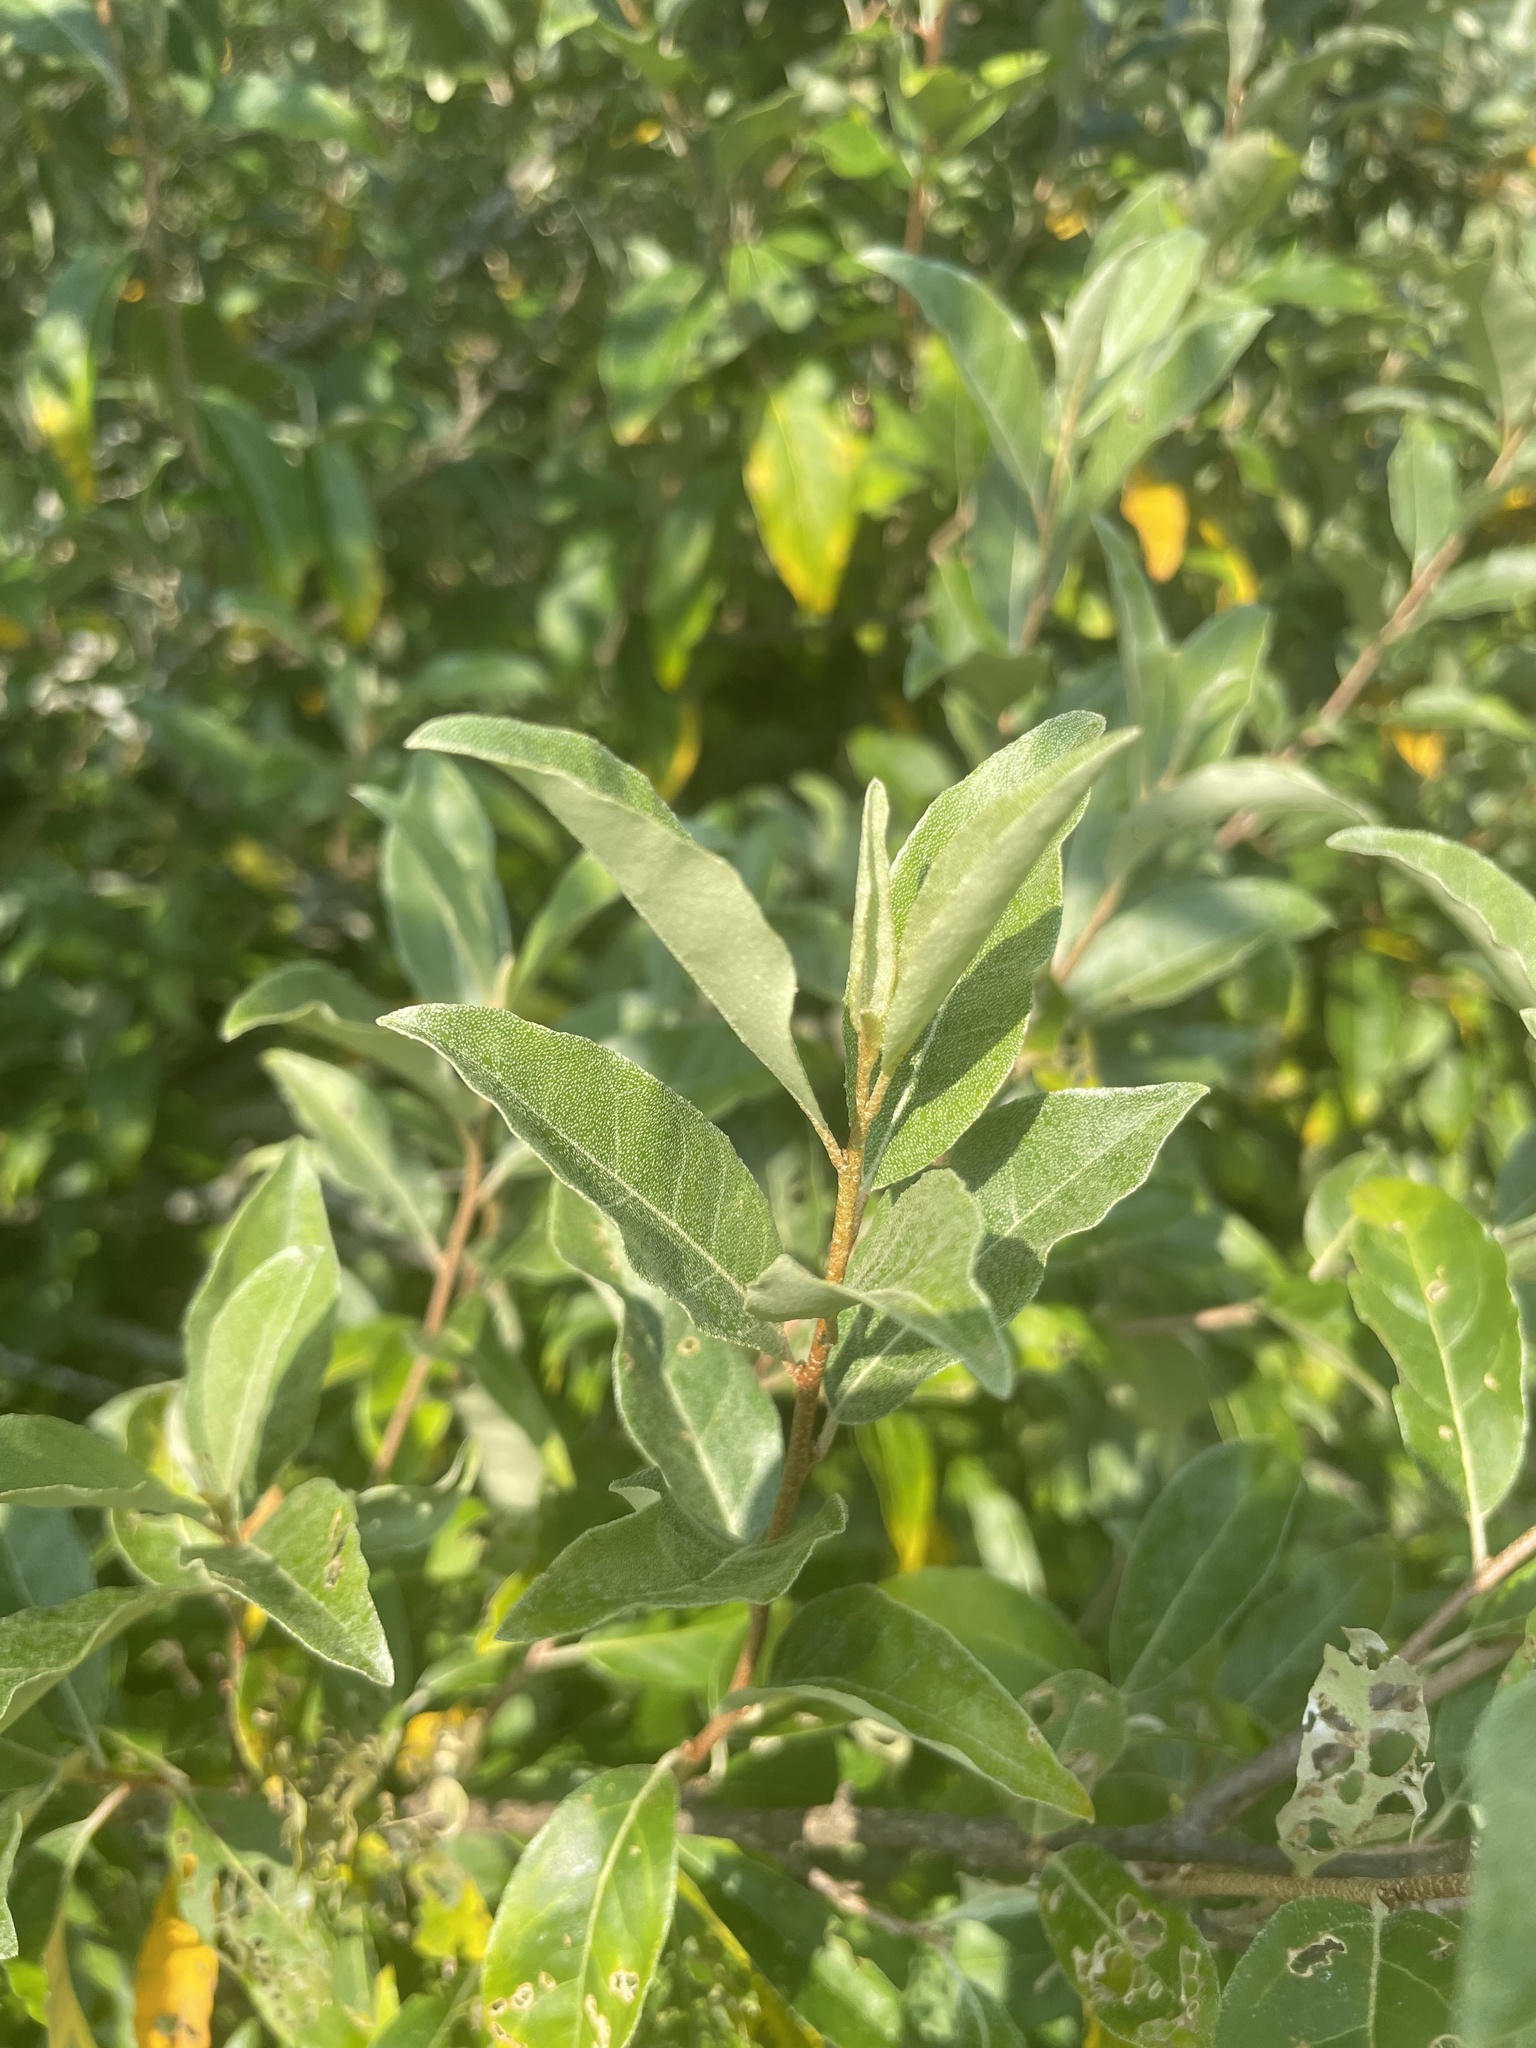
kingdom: Plantae
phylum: Tracheophyta
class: Magnoliopsida
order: Rosales
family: Elaeagnaceae
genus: Elaeagnus
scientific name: Elaeagnus umbellata
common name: Autumn olive
